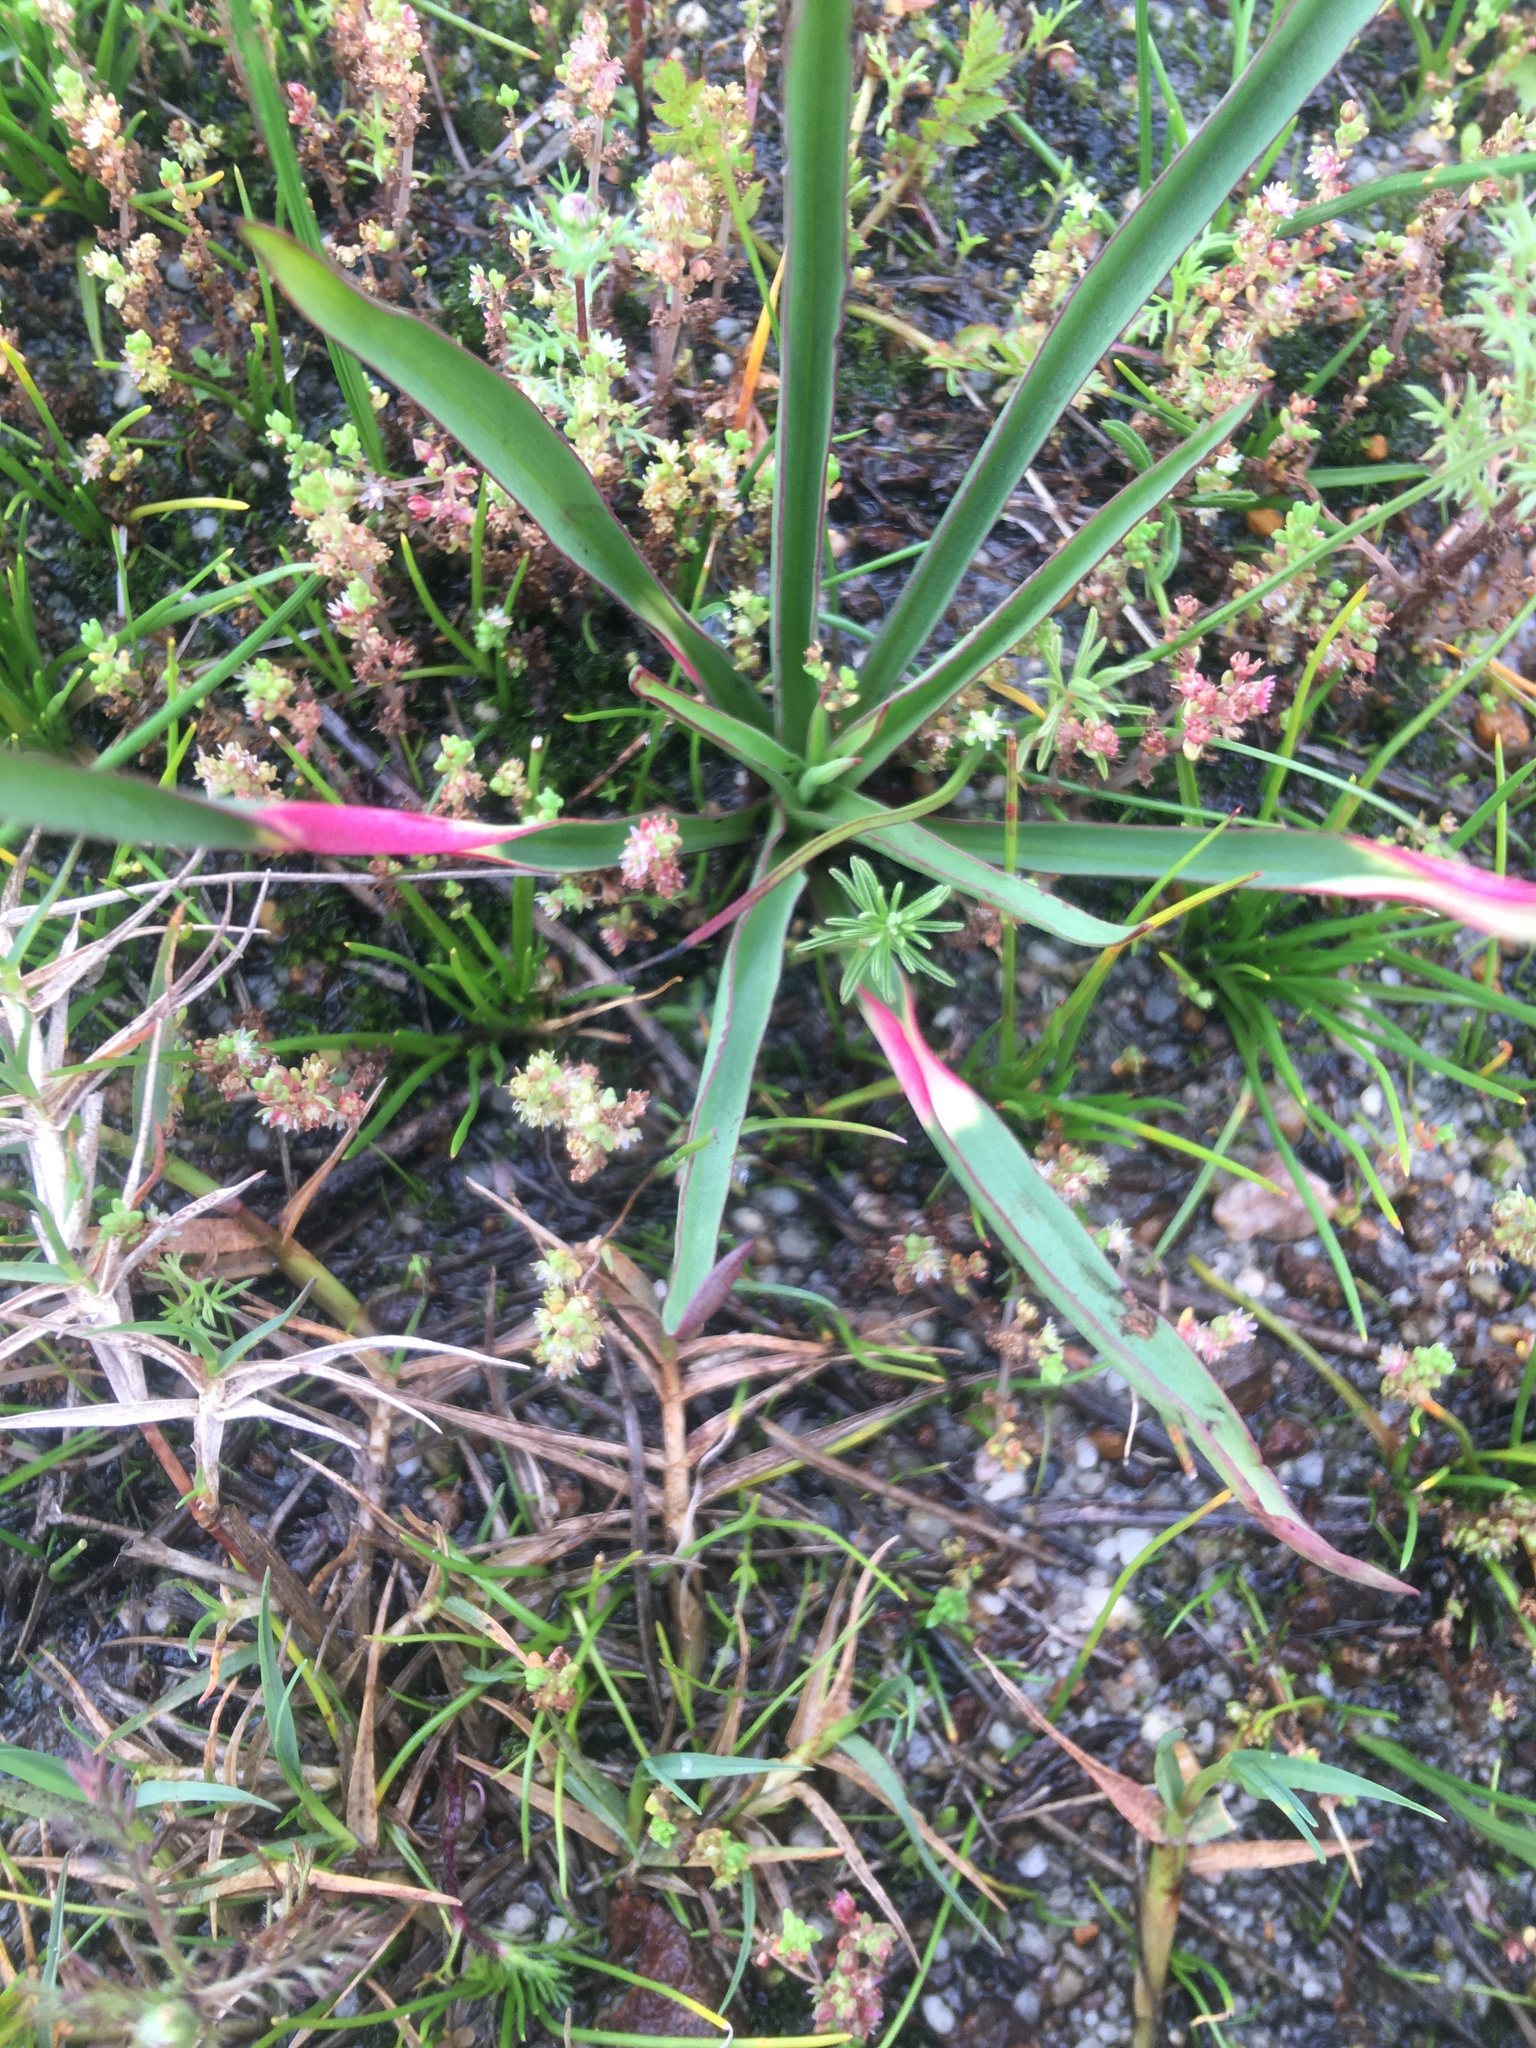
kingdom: Plantae
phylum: Tracheophyta
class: Liliopsida
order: Asparagales
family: Orchidaceae
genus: Disa
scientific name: Disa bracteata
